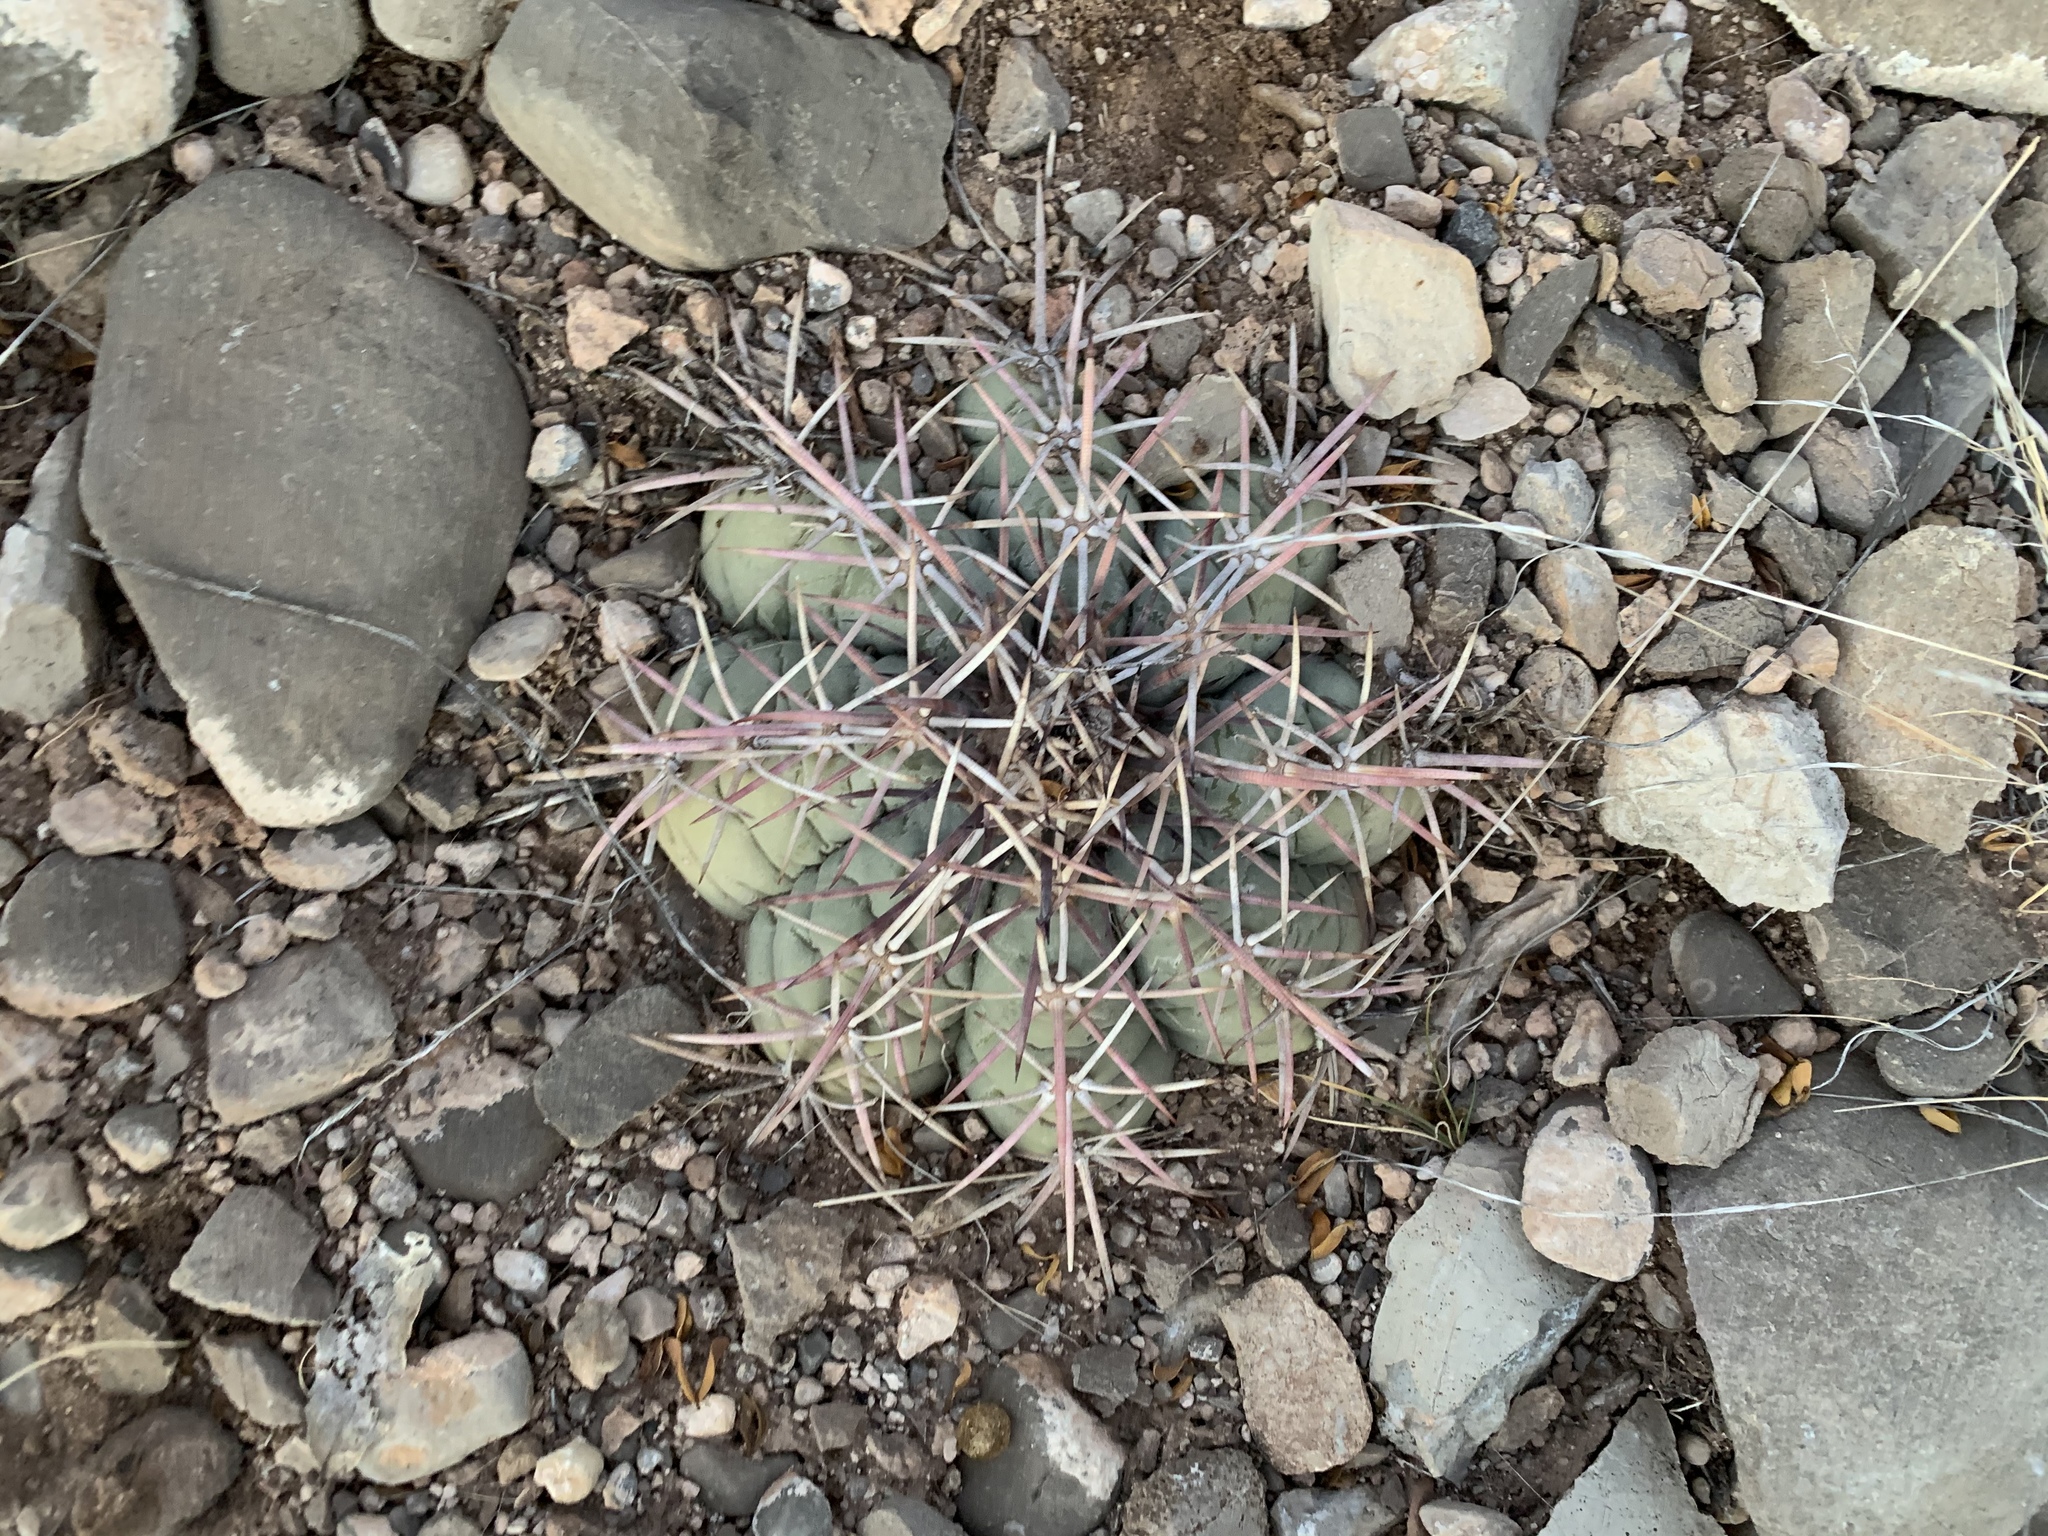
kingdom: Plantae
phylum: Tracheophyta
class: Magnoliopsida
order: Caryophyllales
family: Cactaceae
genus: Echinocactus
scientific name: Echinocactus horizonthalonius
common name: Devilshead
